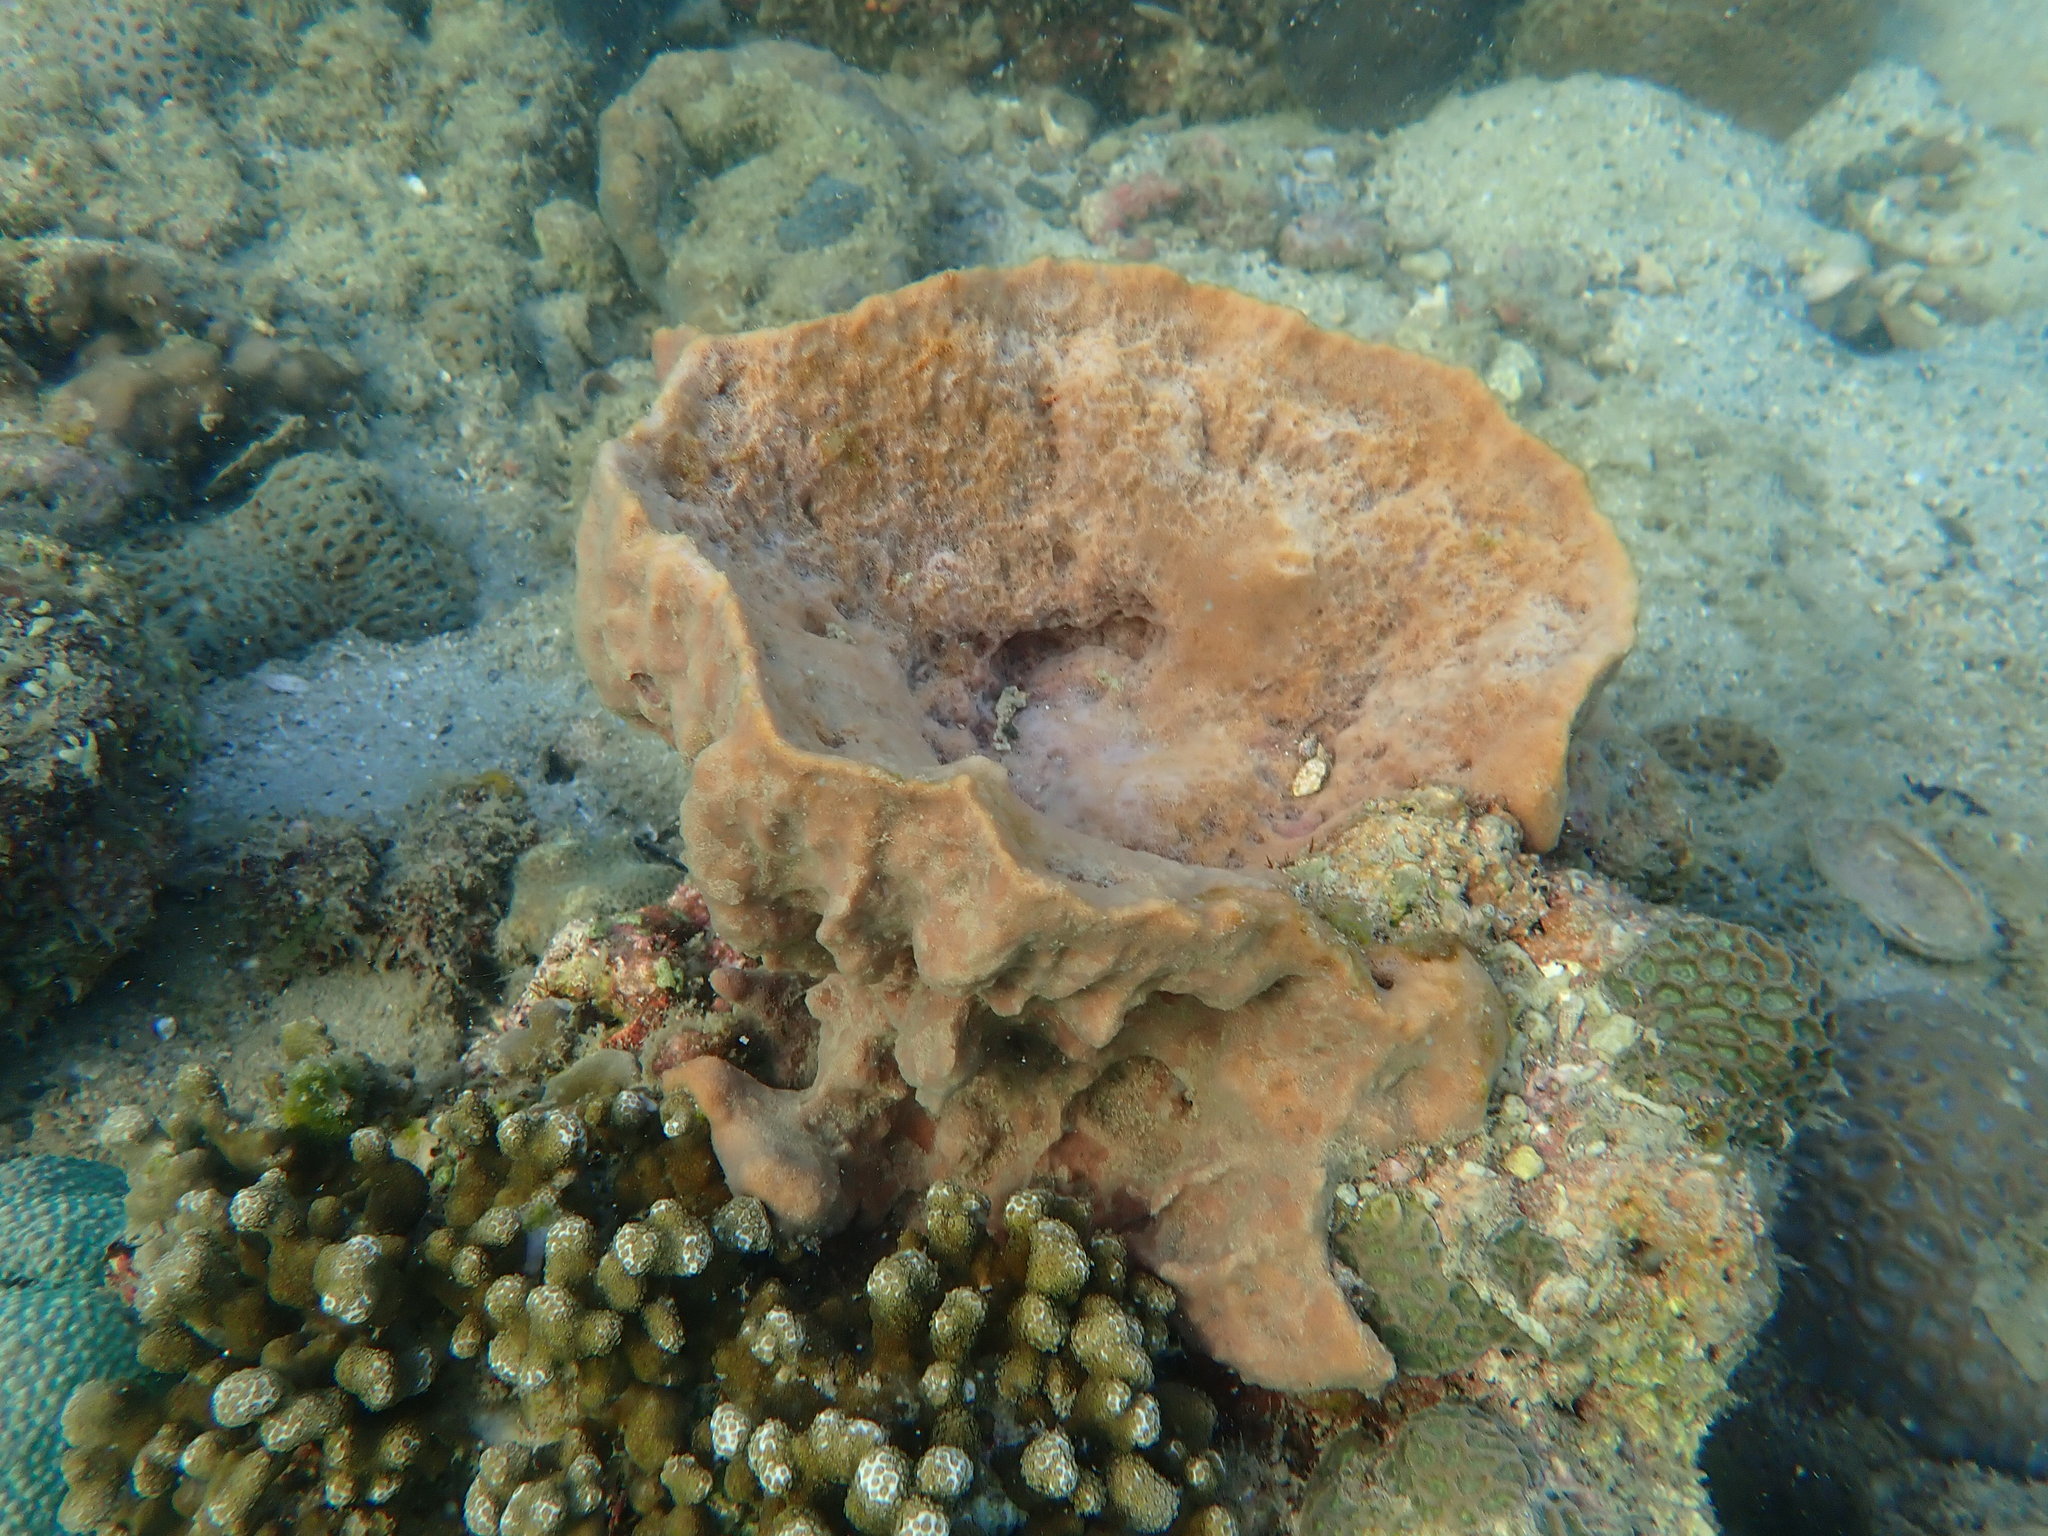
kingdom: Animalia
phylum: Porifera
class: Demospongiae
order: Haplosclerida
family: Petrosiidae
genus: Xestospongia
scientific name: Xestospongia testudinaria
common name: Barrel sponge
